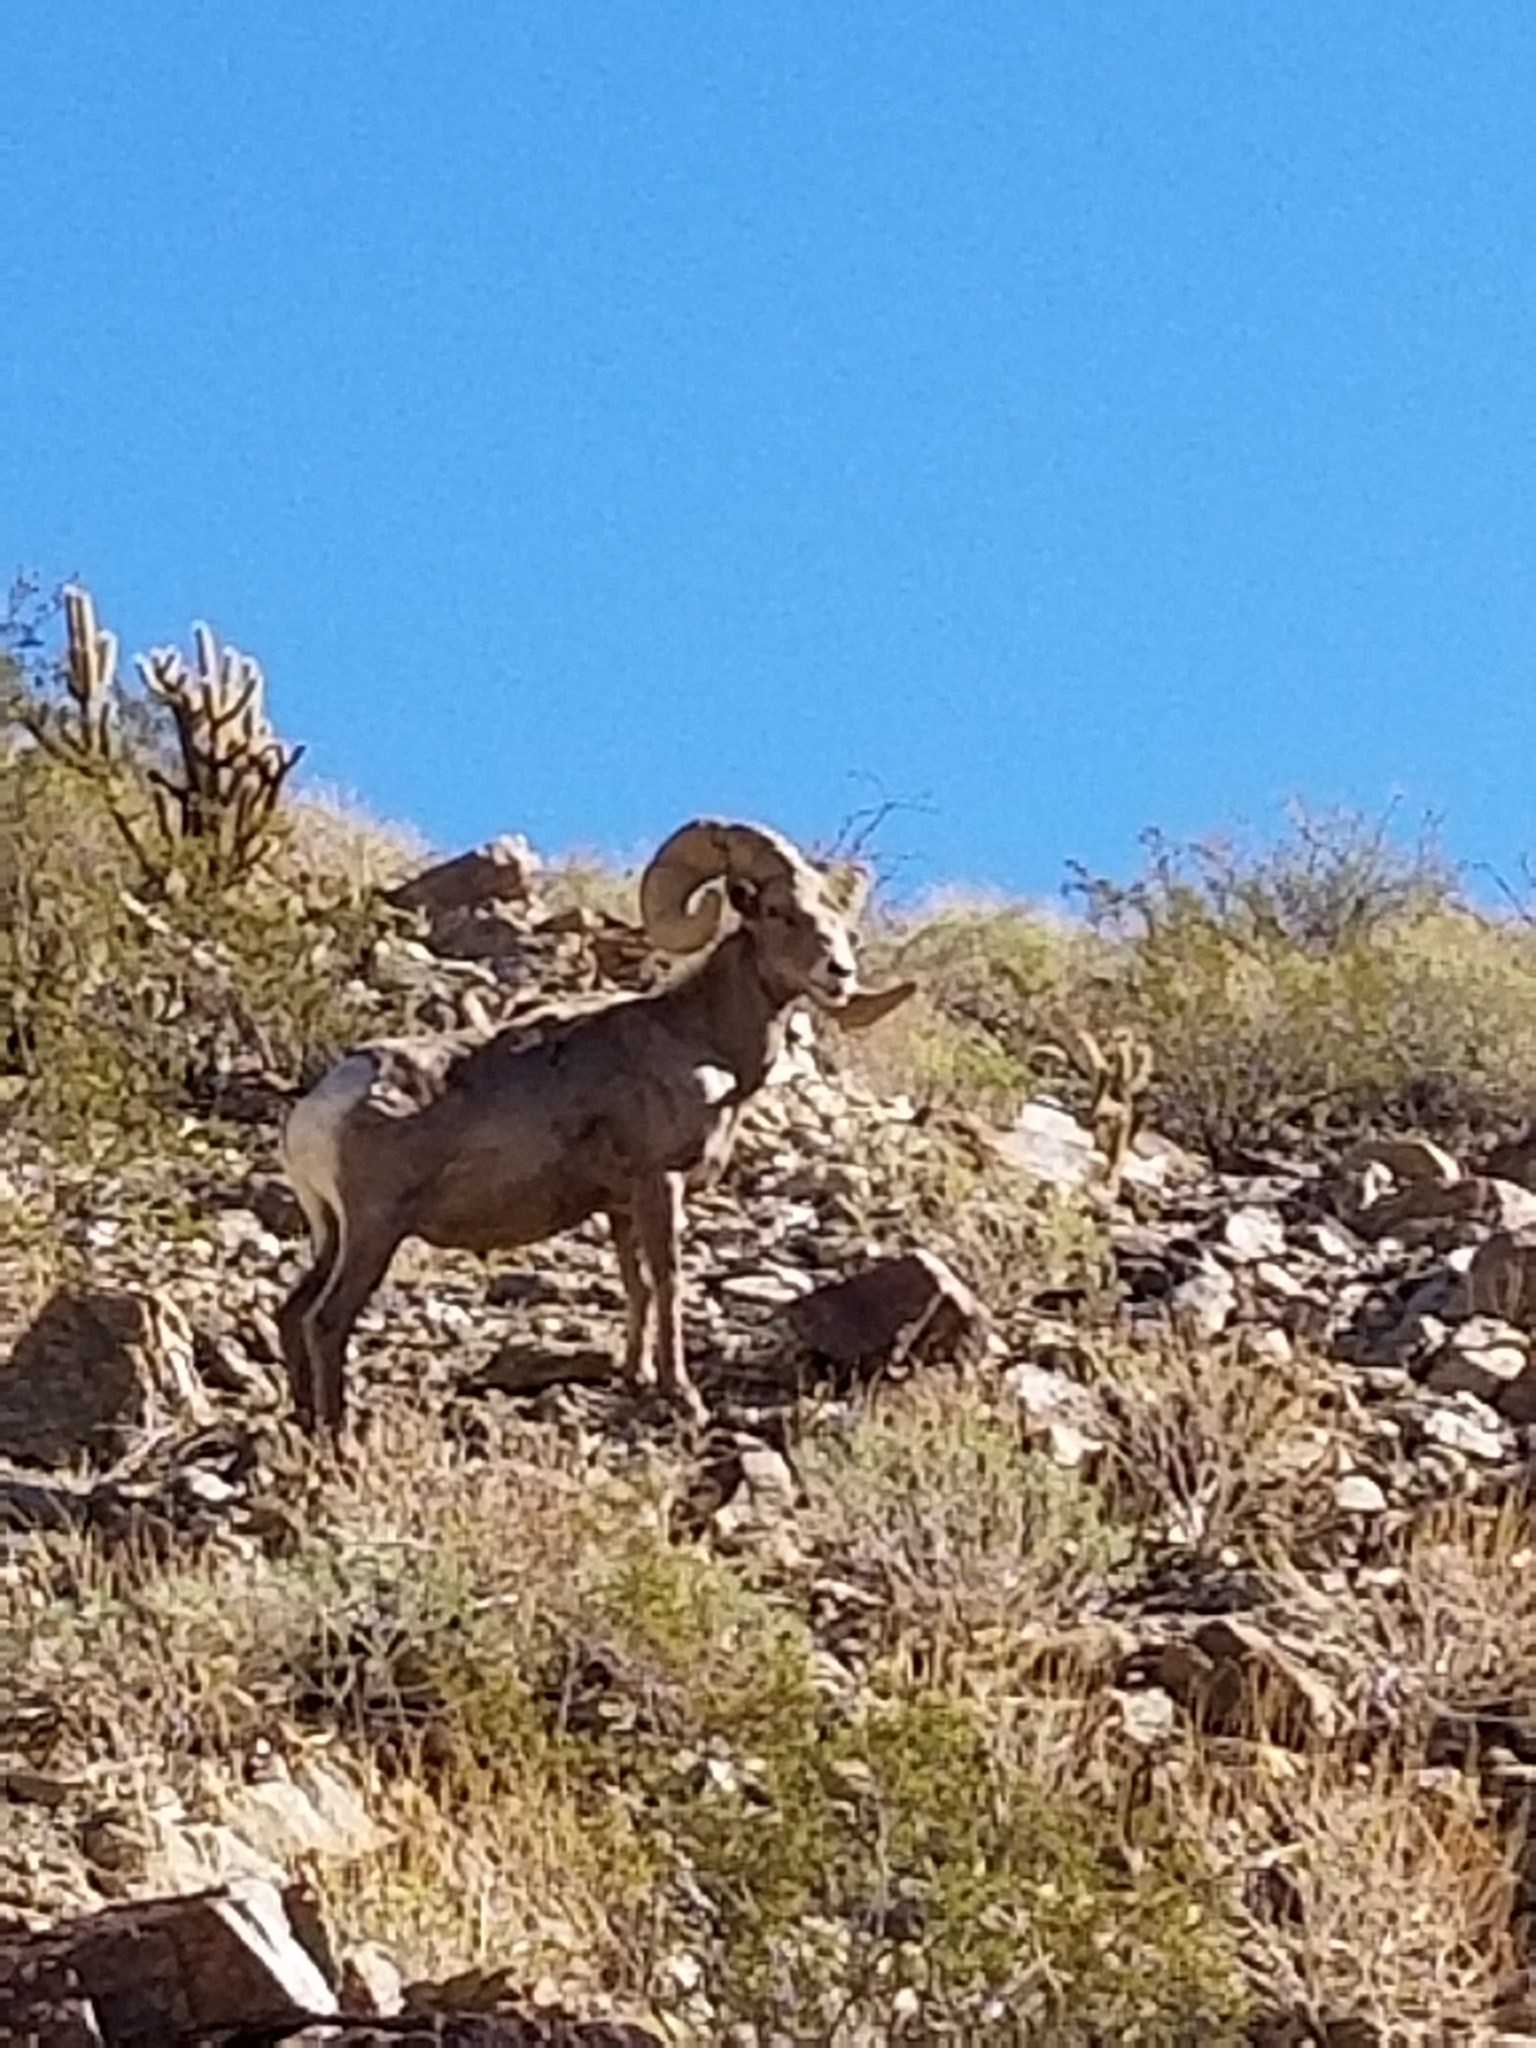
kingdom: Animalia
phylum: Chordata
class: Mammalia
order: Artiodactyla
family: Bovidae
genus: Ovis
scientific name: Ovis canadensis
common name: Bighorn sheep
